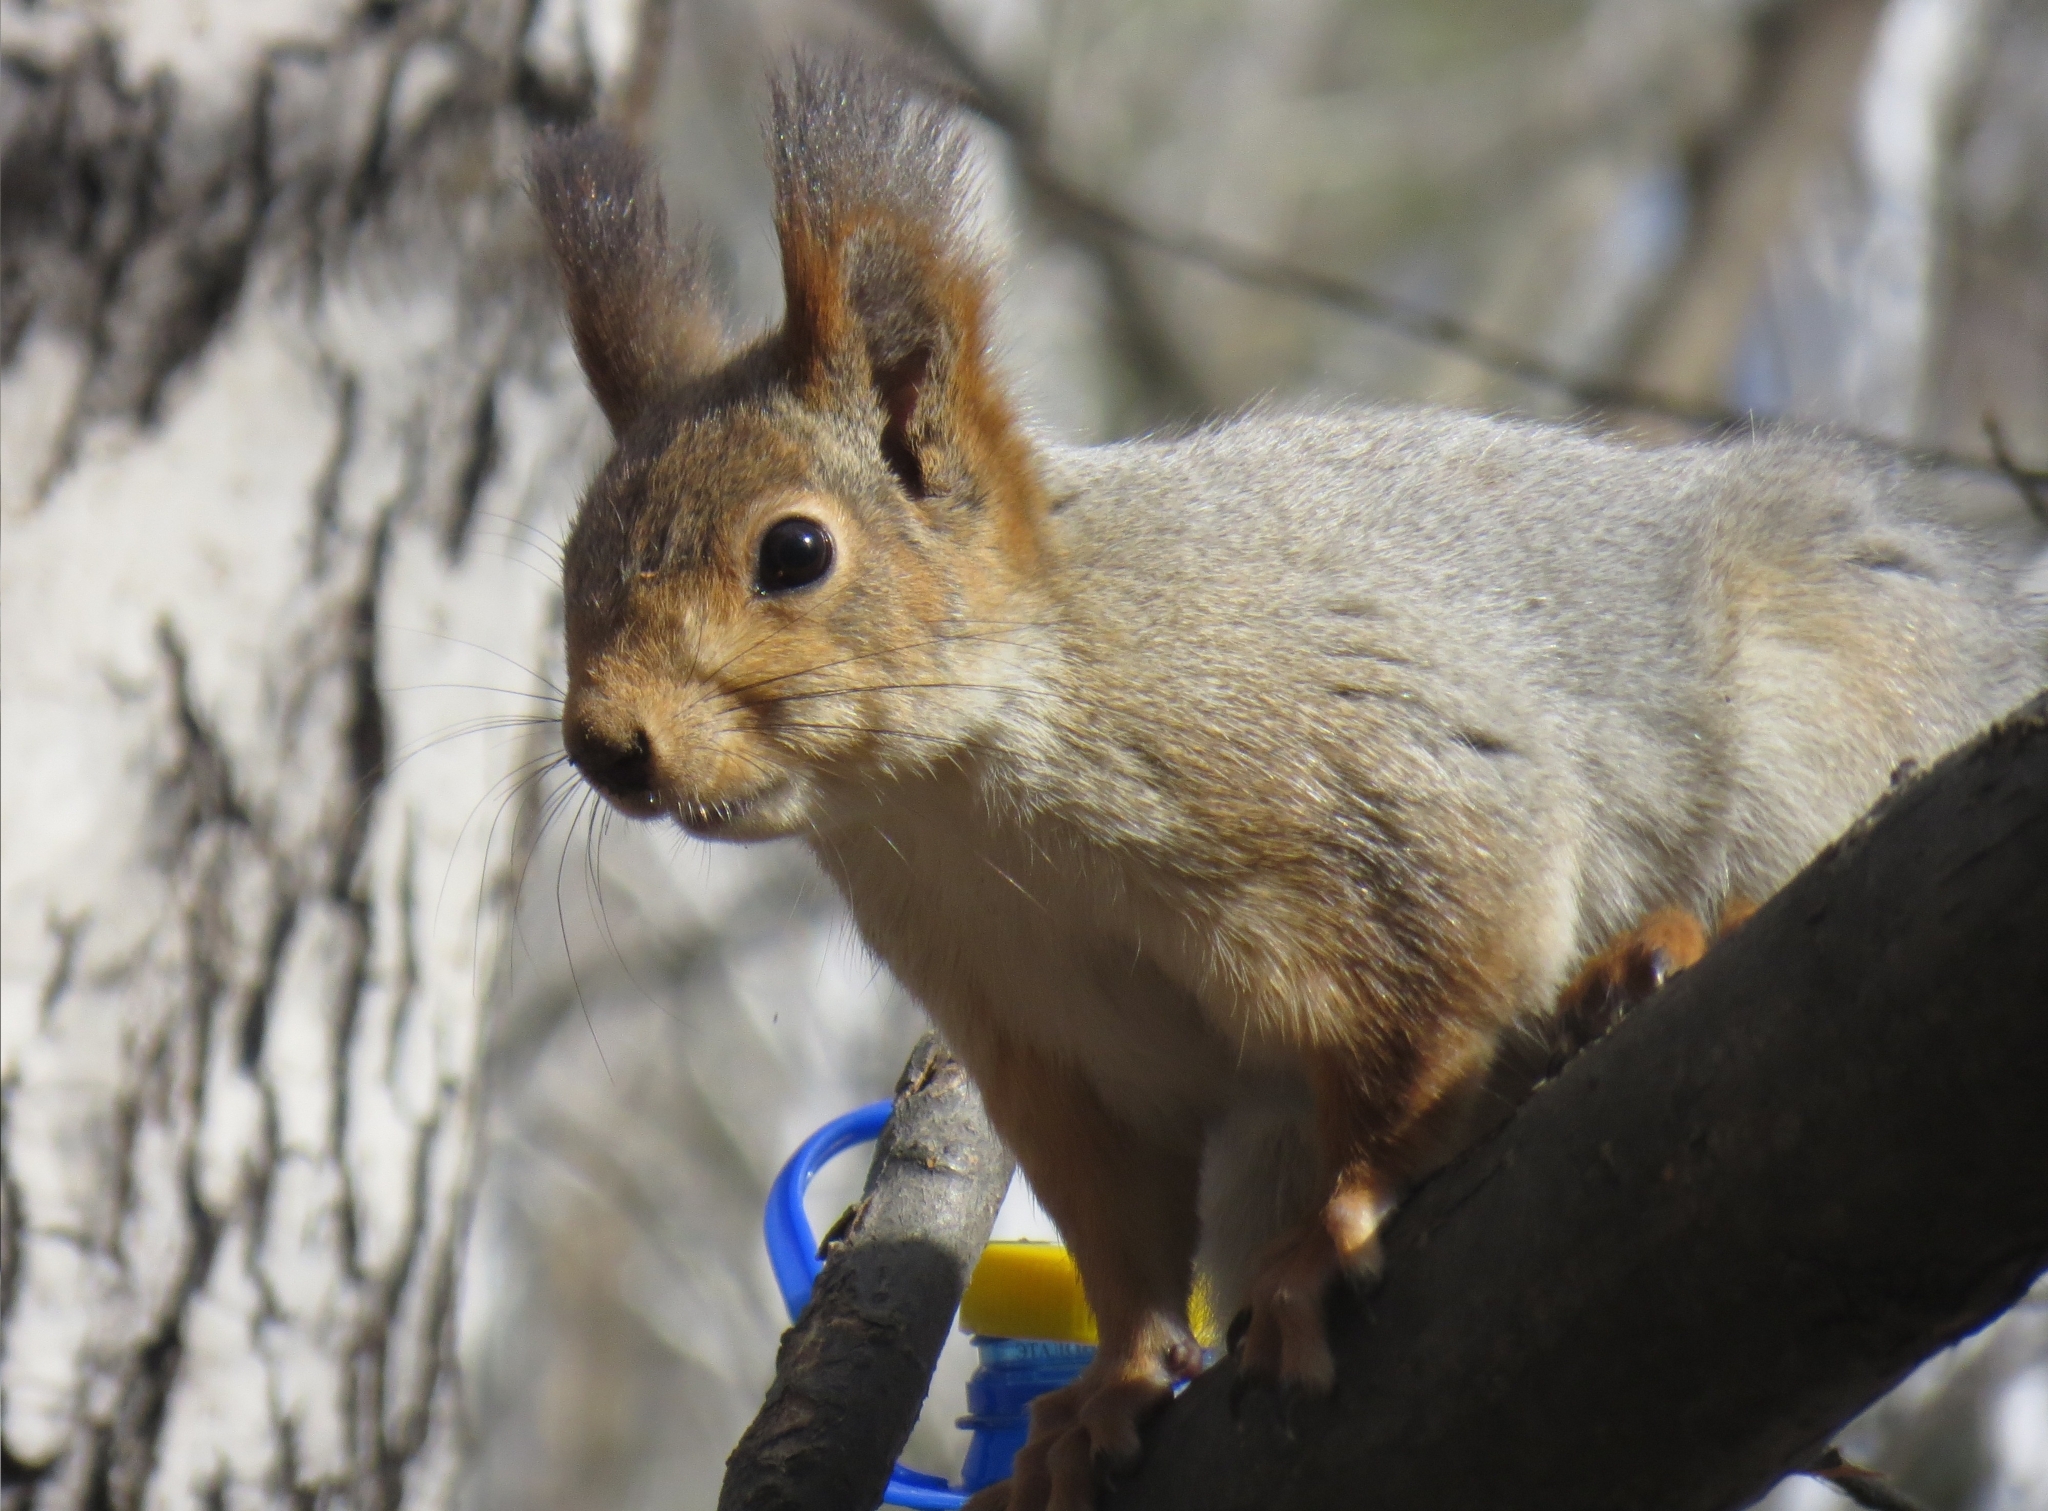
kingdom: Animalia
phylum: Chordata
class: Mammalia
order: Rodentia
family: Sciuridae
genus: Sciurus
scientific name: Sciurus vulgaris
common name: Eurasian red squirrel
